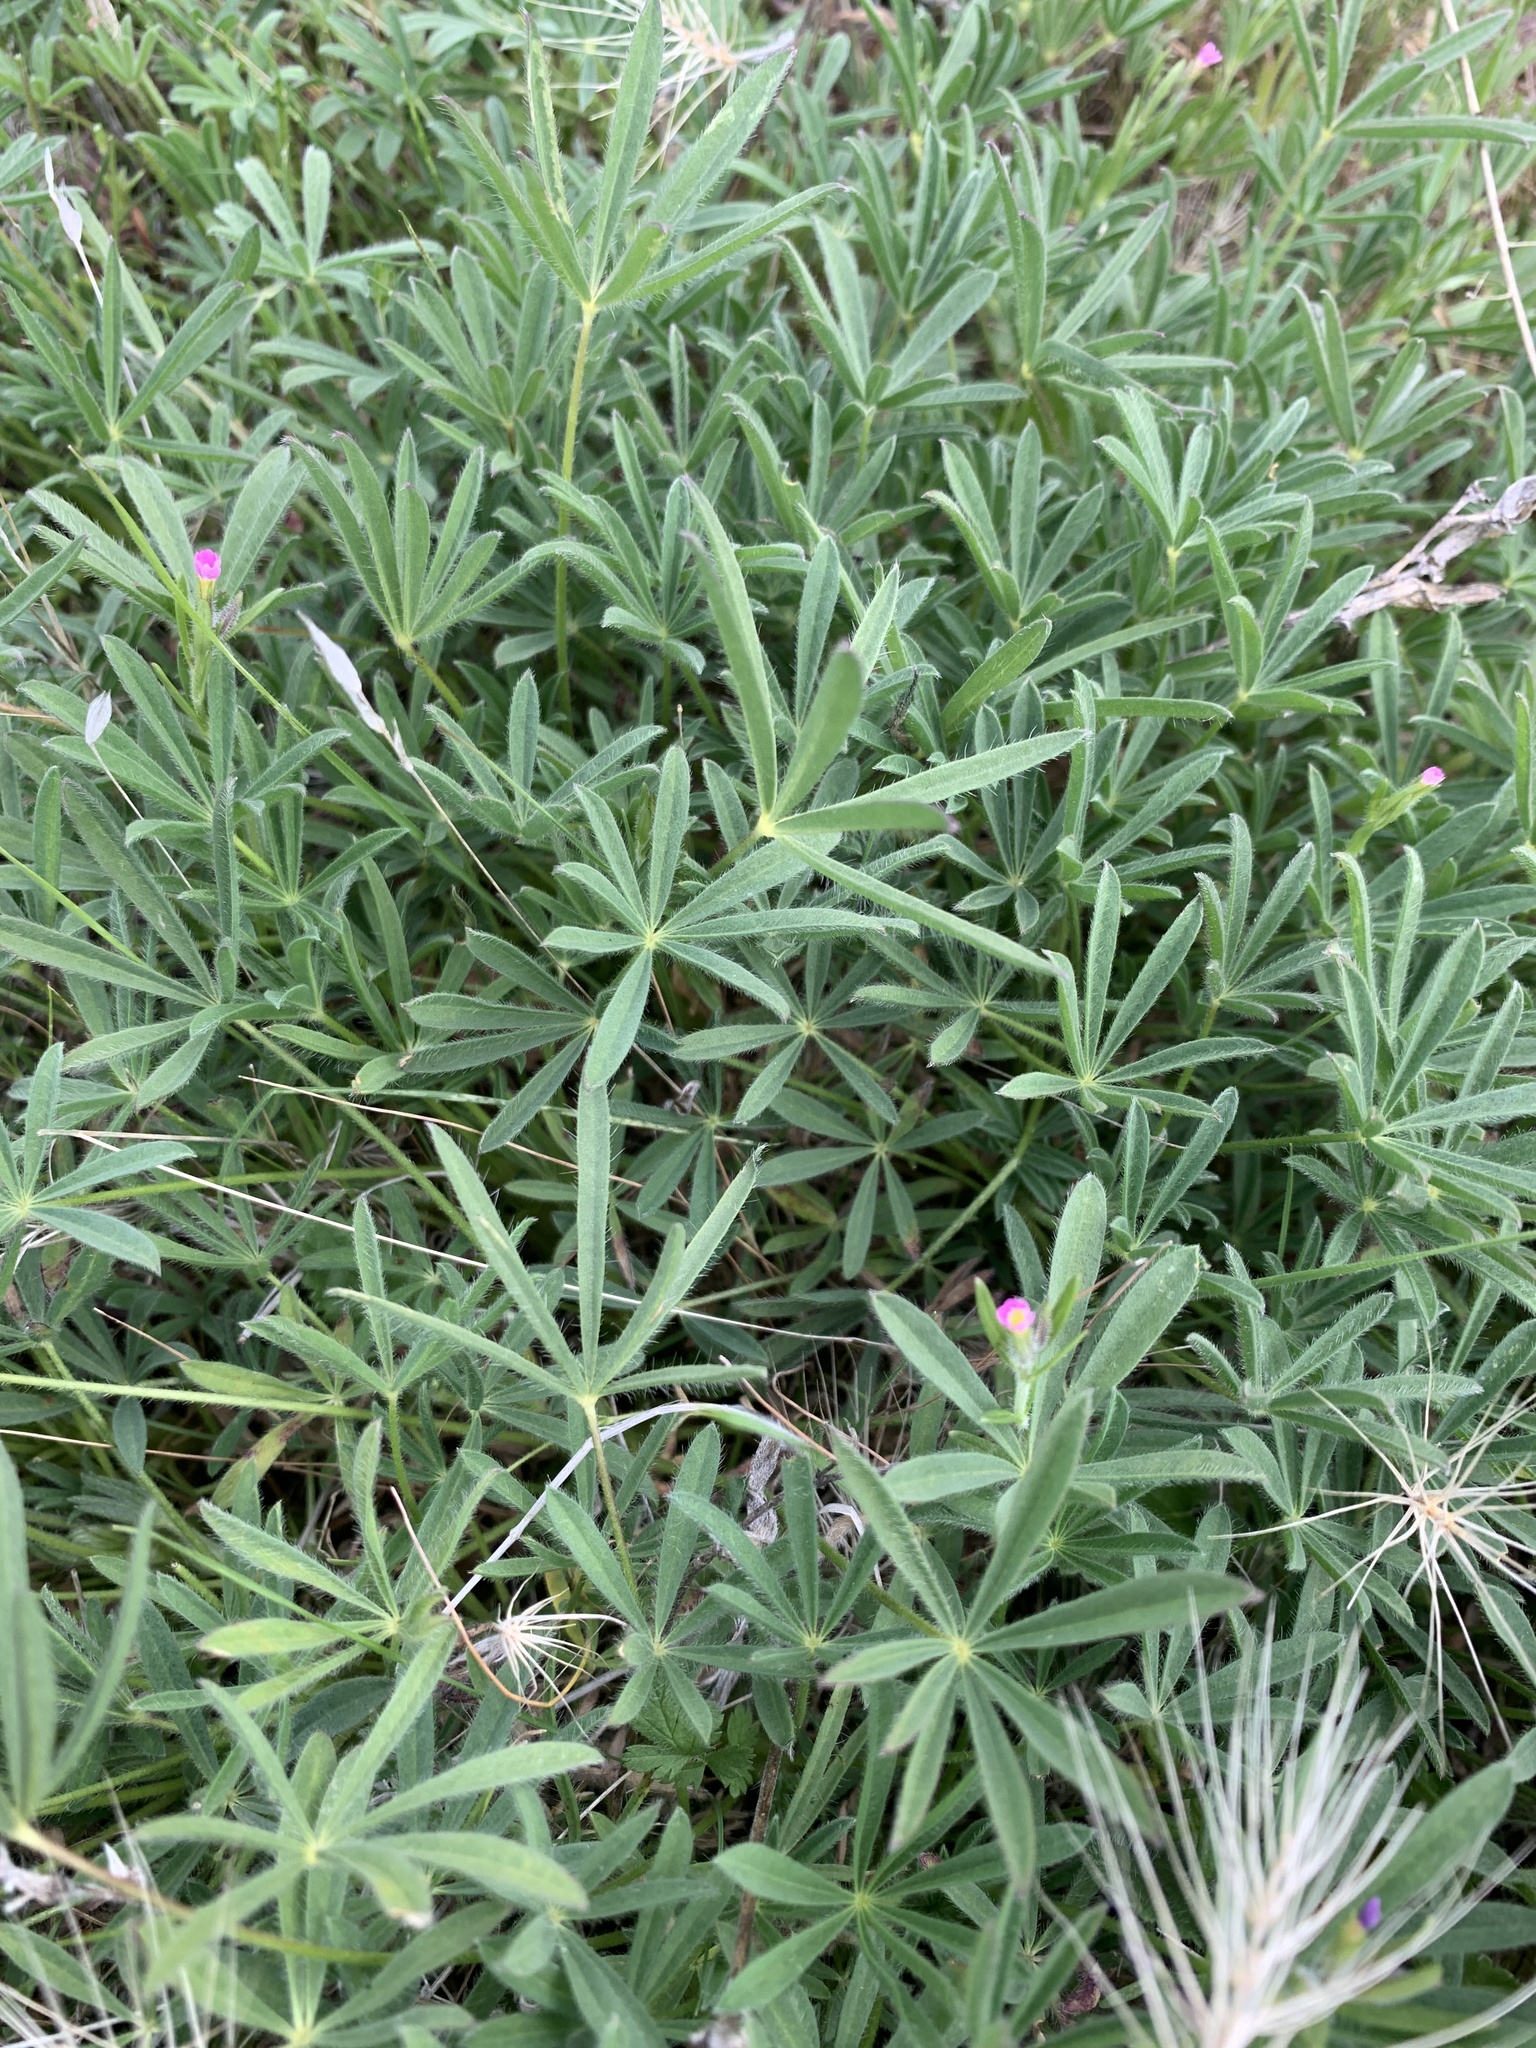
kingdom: Plantae
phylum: Tracheophyta
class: Magnoliopsida
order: Ericales
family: Polemoniaceae
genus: Phlox
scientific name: Phlox gracilis
